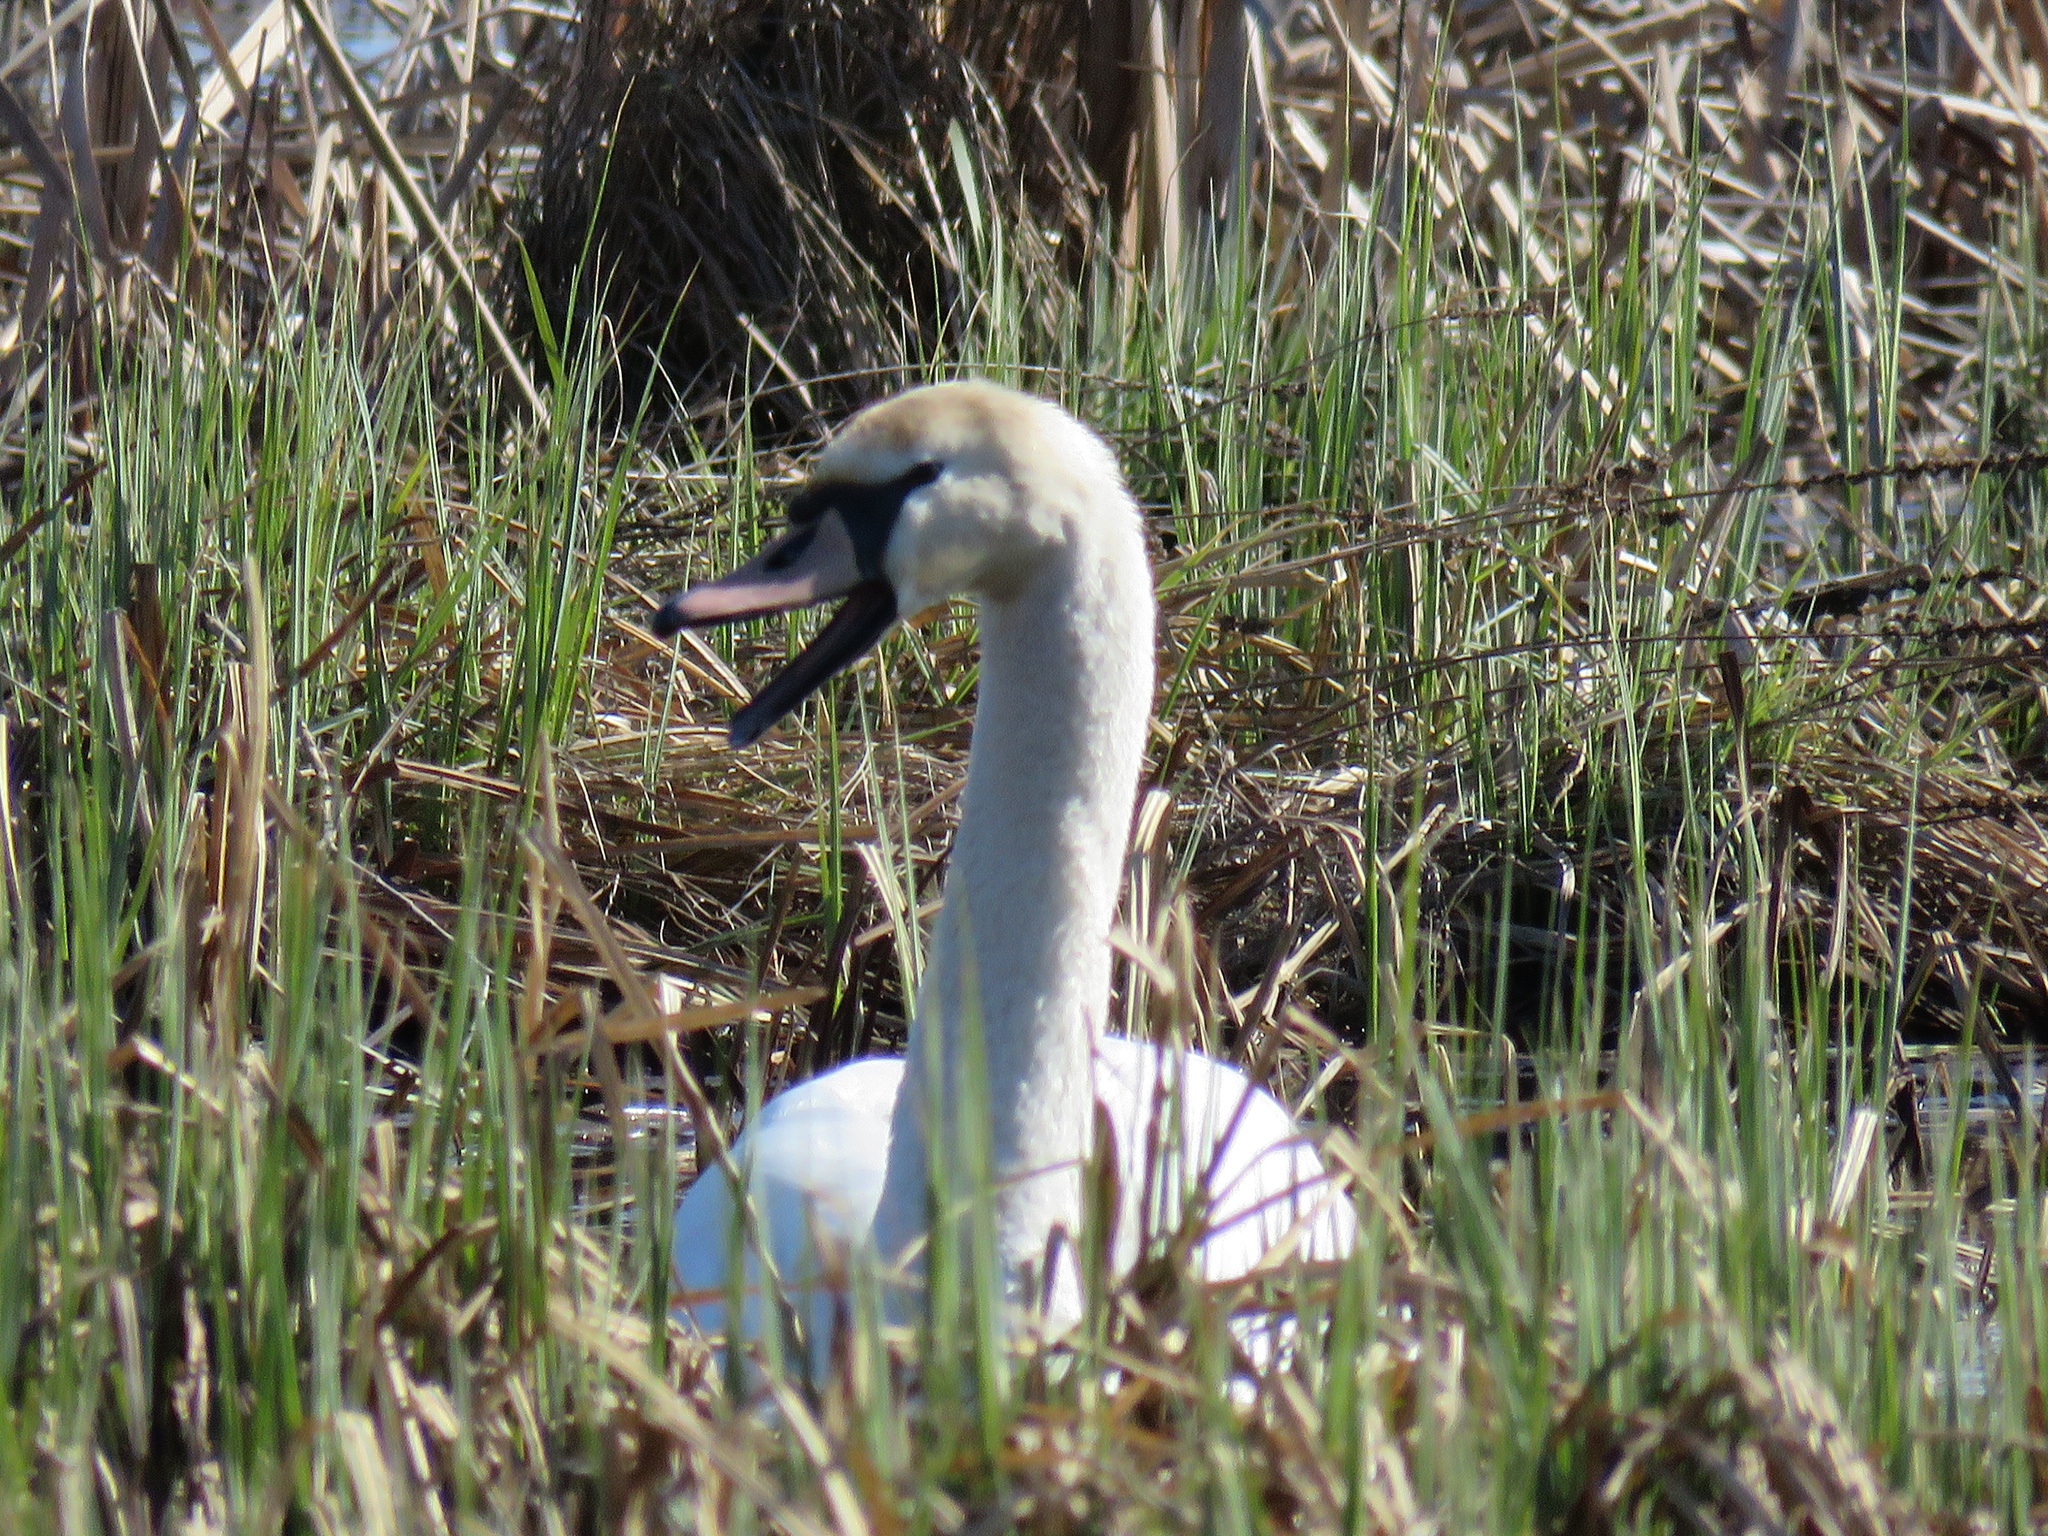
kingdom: Animalia
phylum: Chordata
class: Aves
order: Anseriformes
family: Anatidae
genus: Cygnus
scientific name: Cygnus olor
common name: Mute swan
